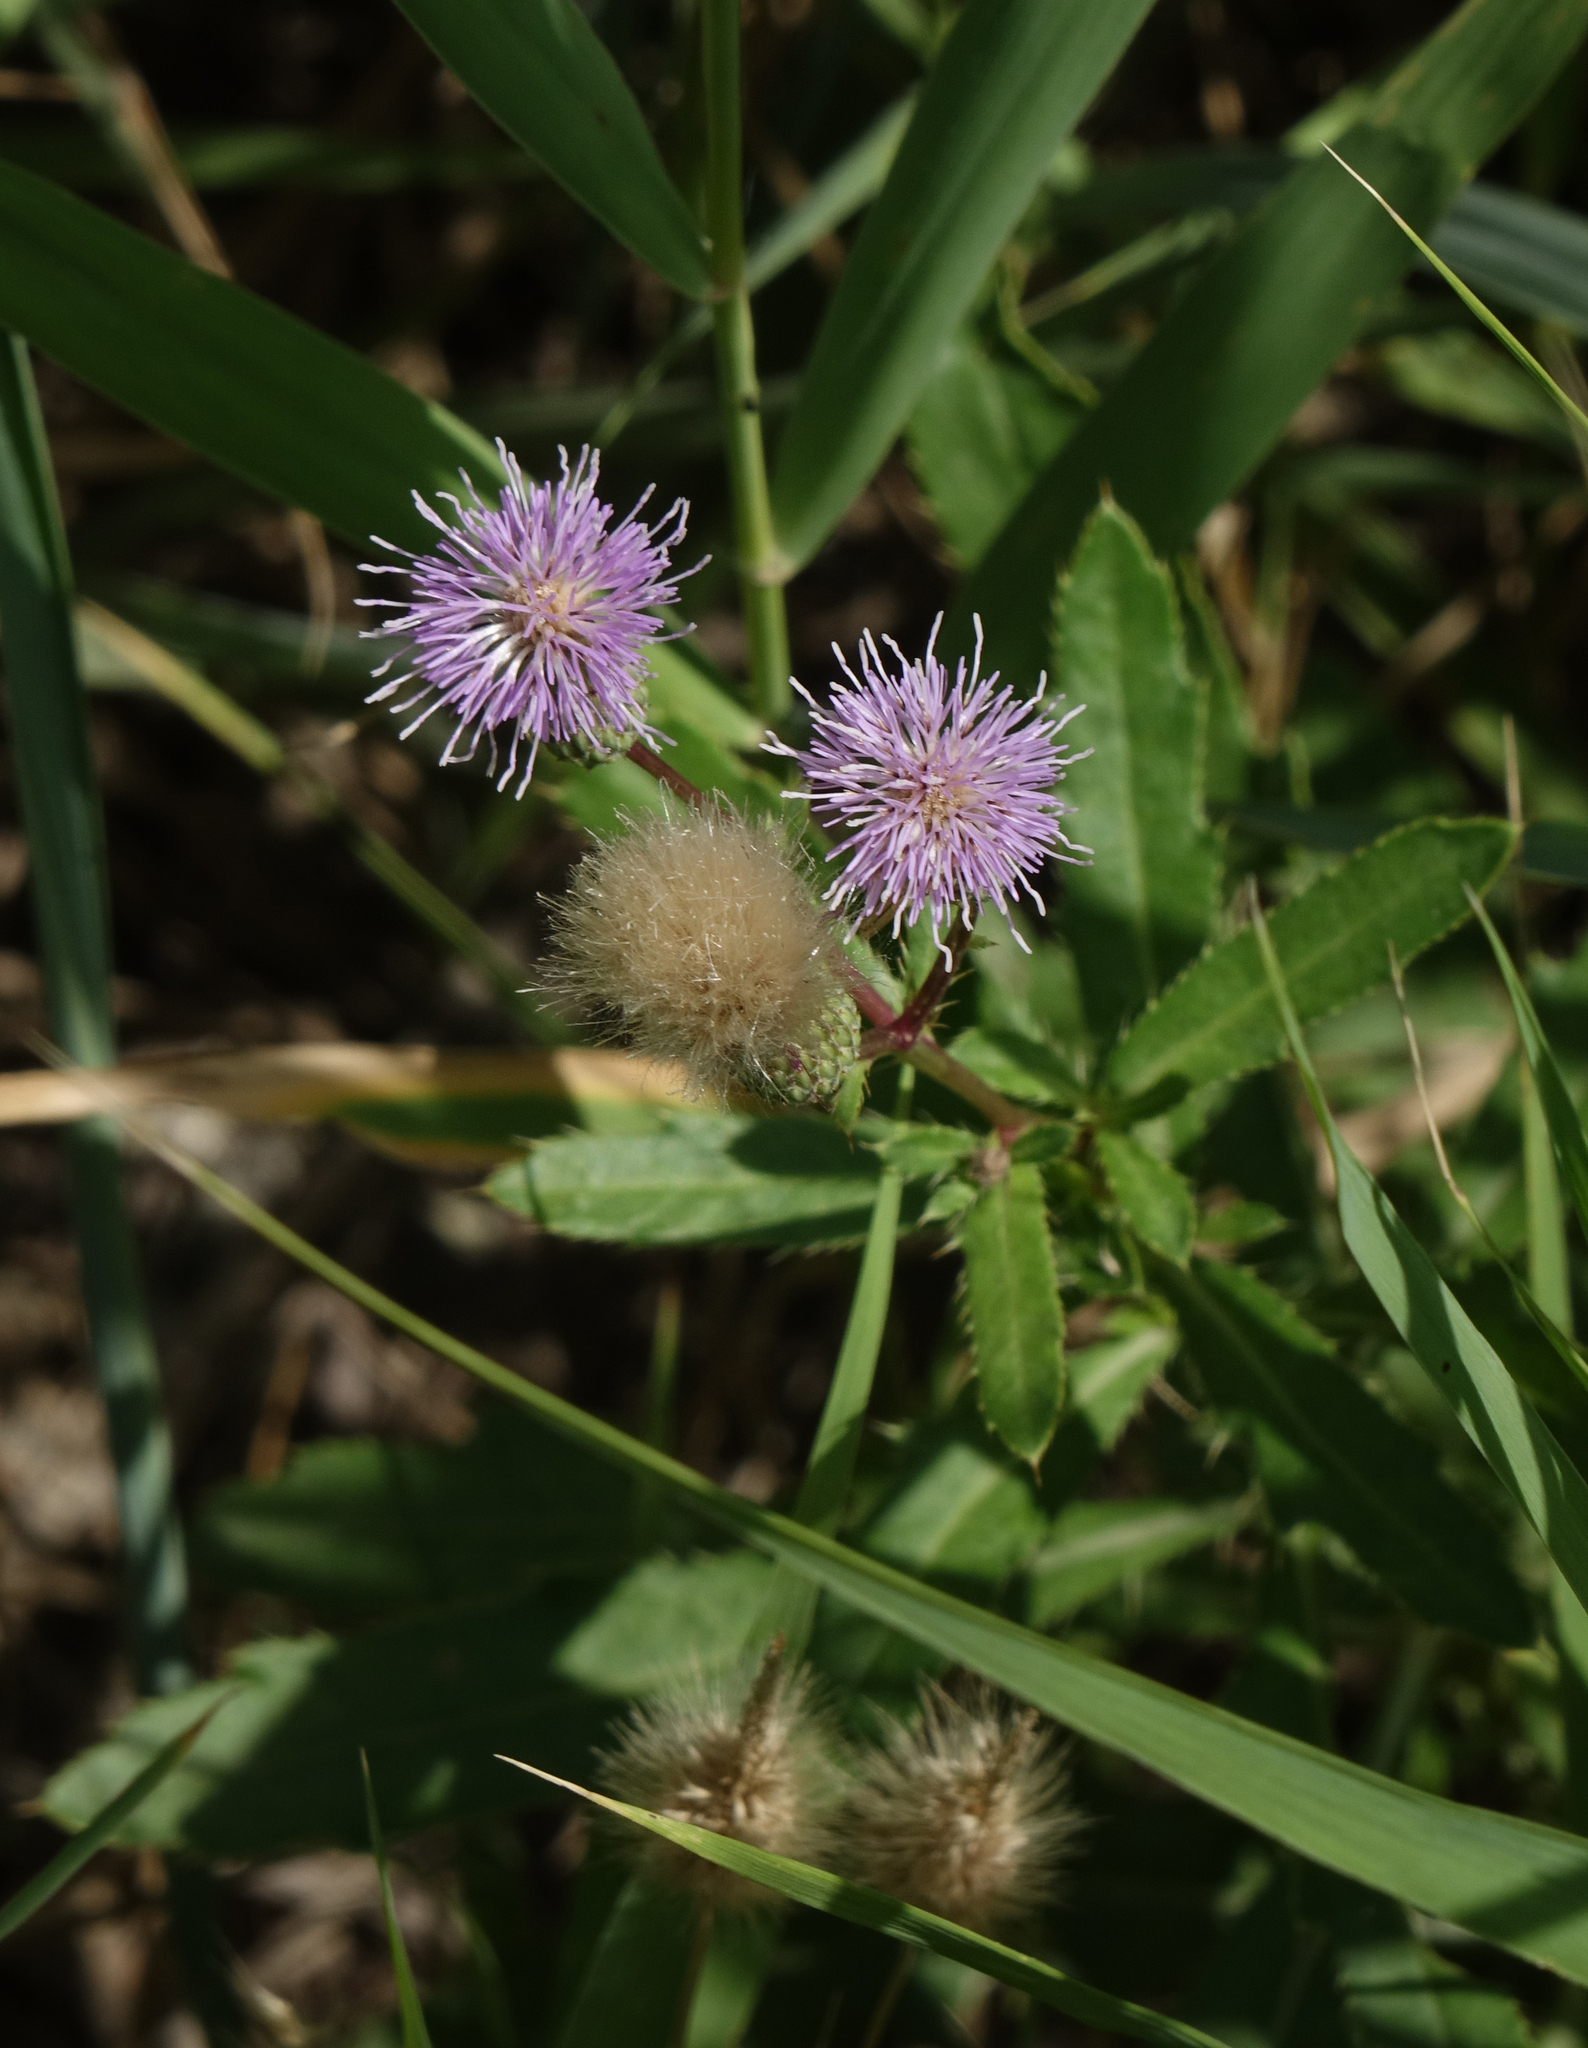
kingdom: Plantae
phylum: Tracheophyta
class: Magnoliopsida
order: Asterales
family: Asteraceae
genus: Cirsium
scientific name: Cirsium arvense
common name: Creeping thistle
